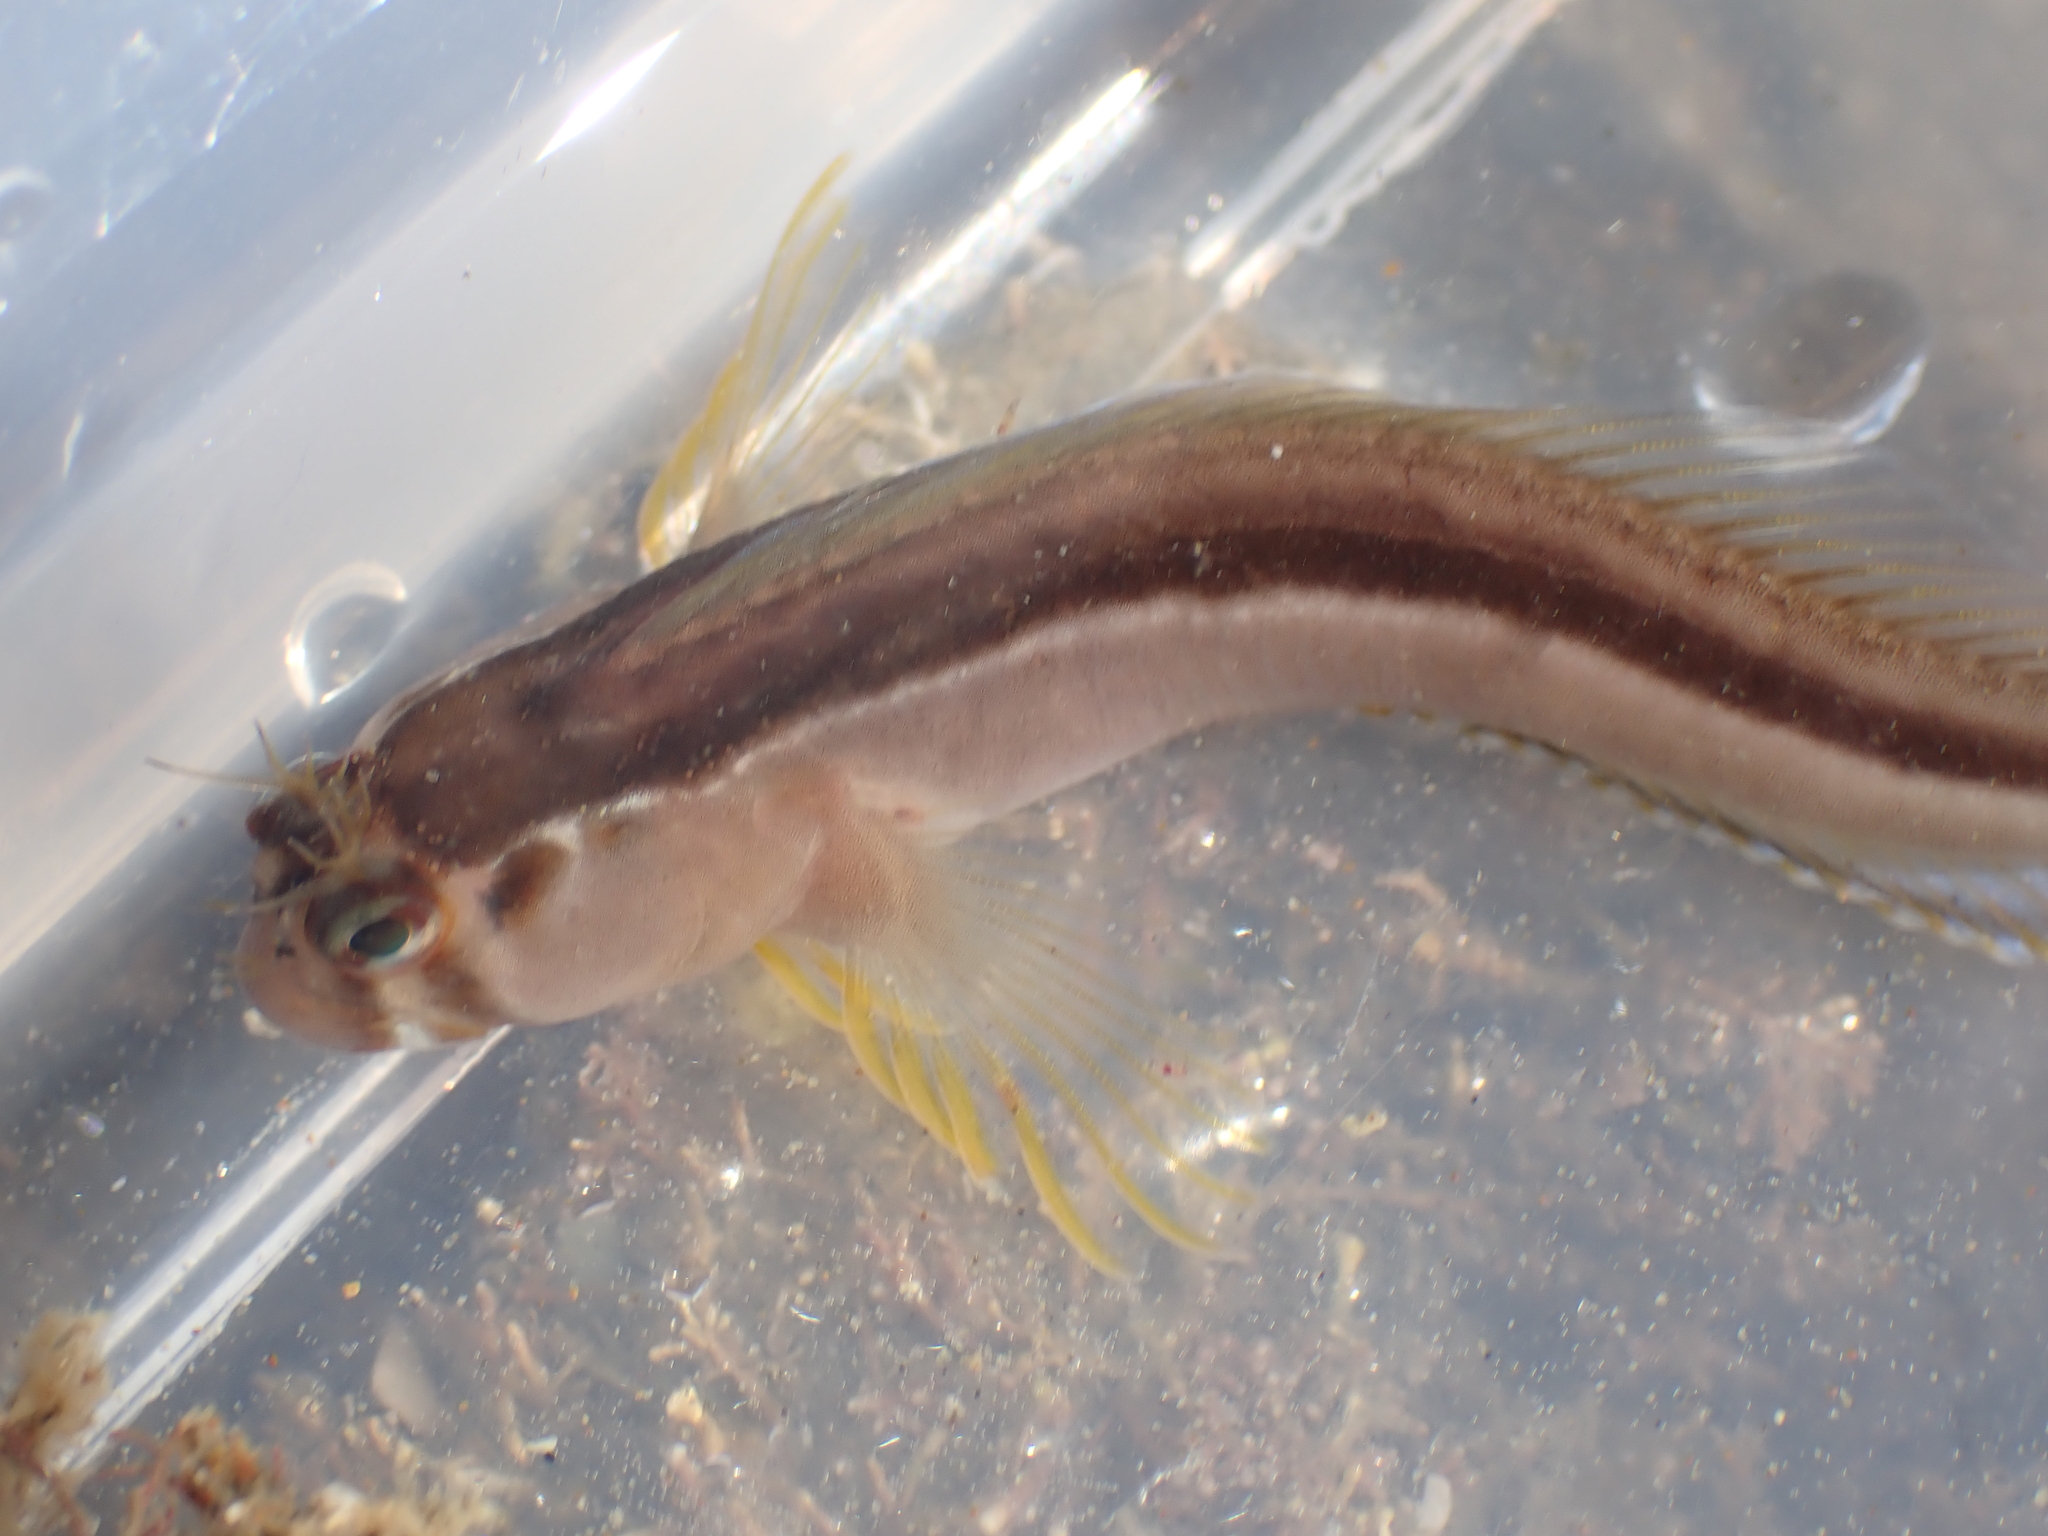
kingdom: Animalia
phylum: Chordata
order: Perciformes
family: Blenniidae
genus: Parablennius
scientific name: Parablennius laticlavius
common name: Crested blenny
